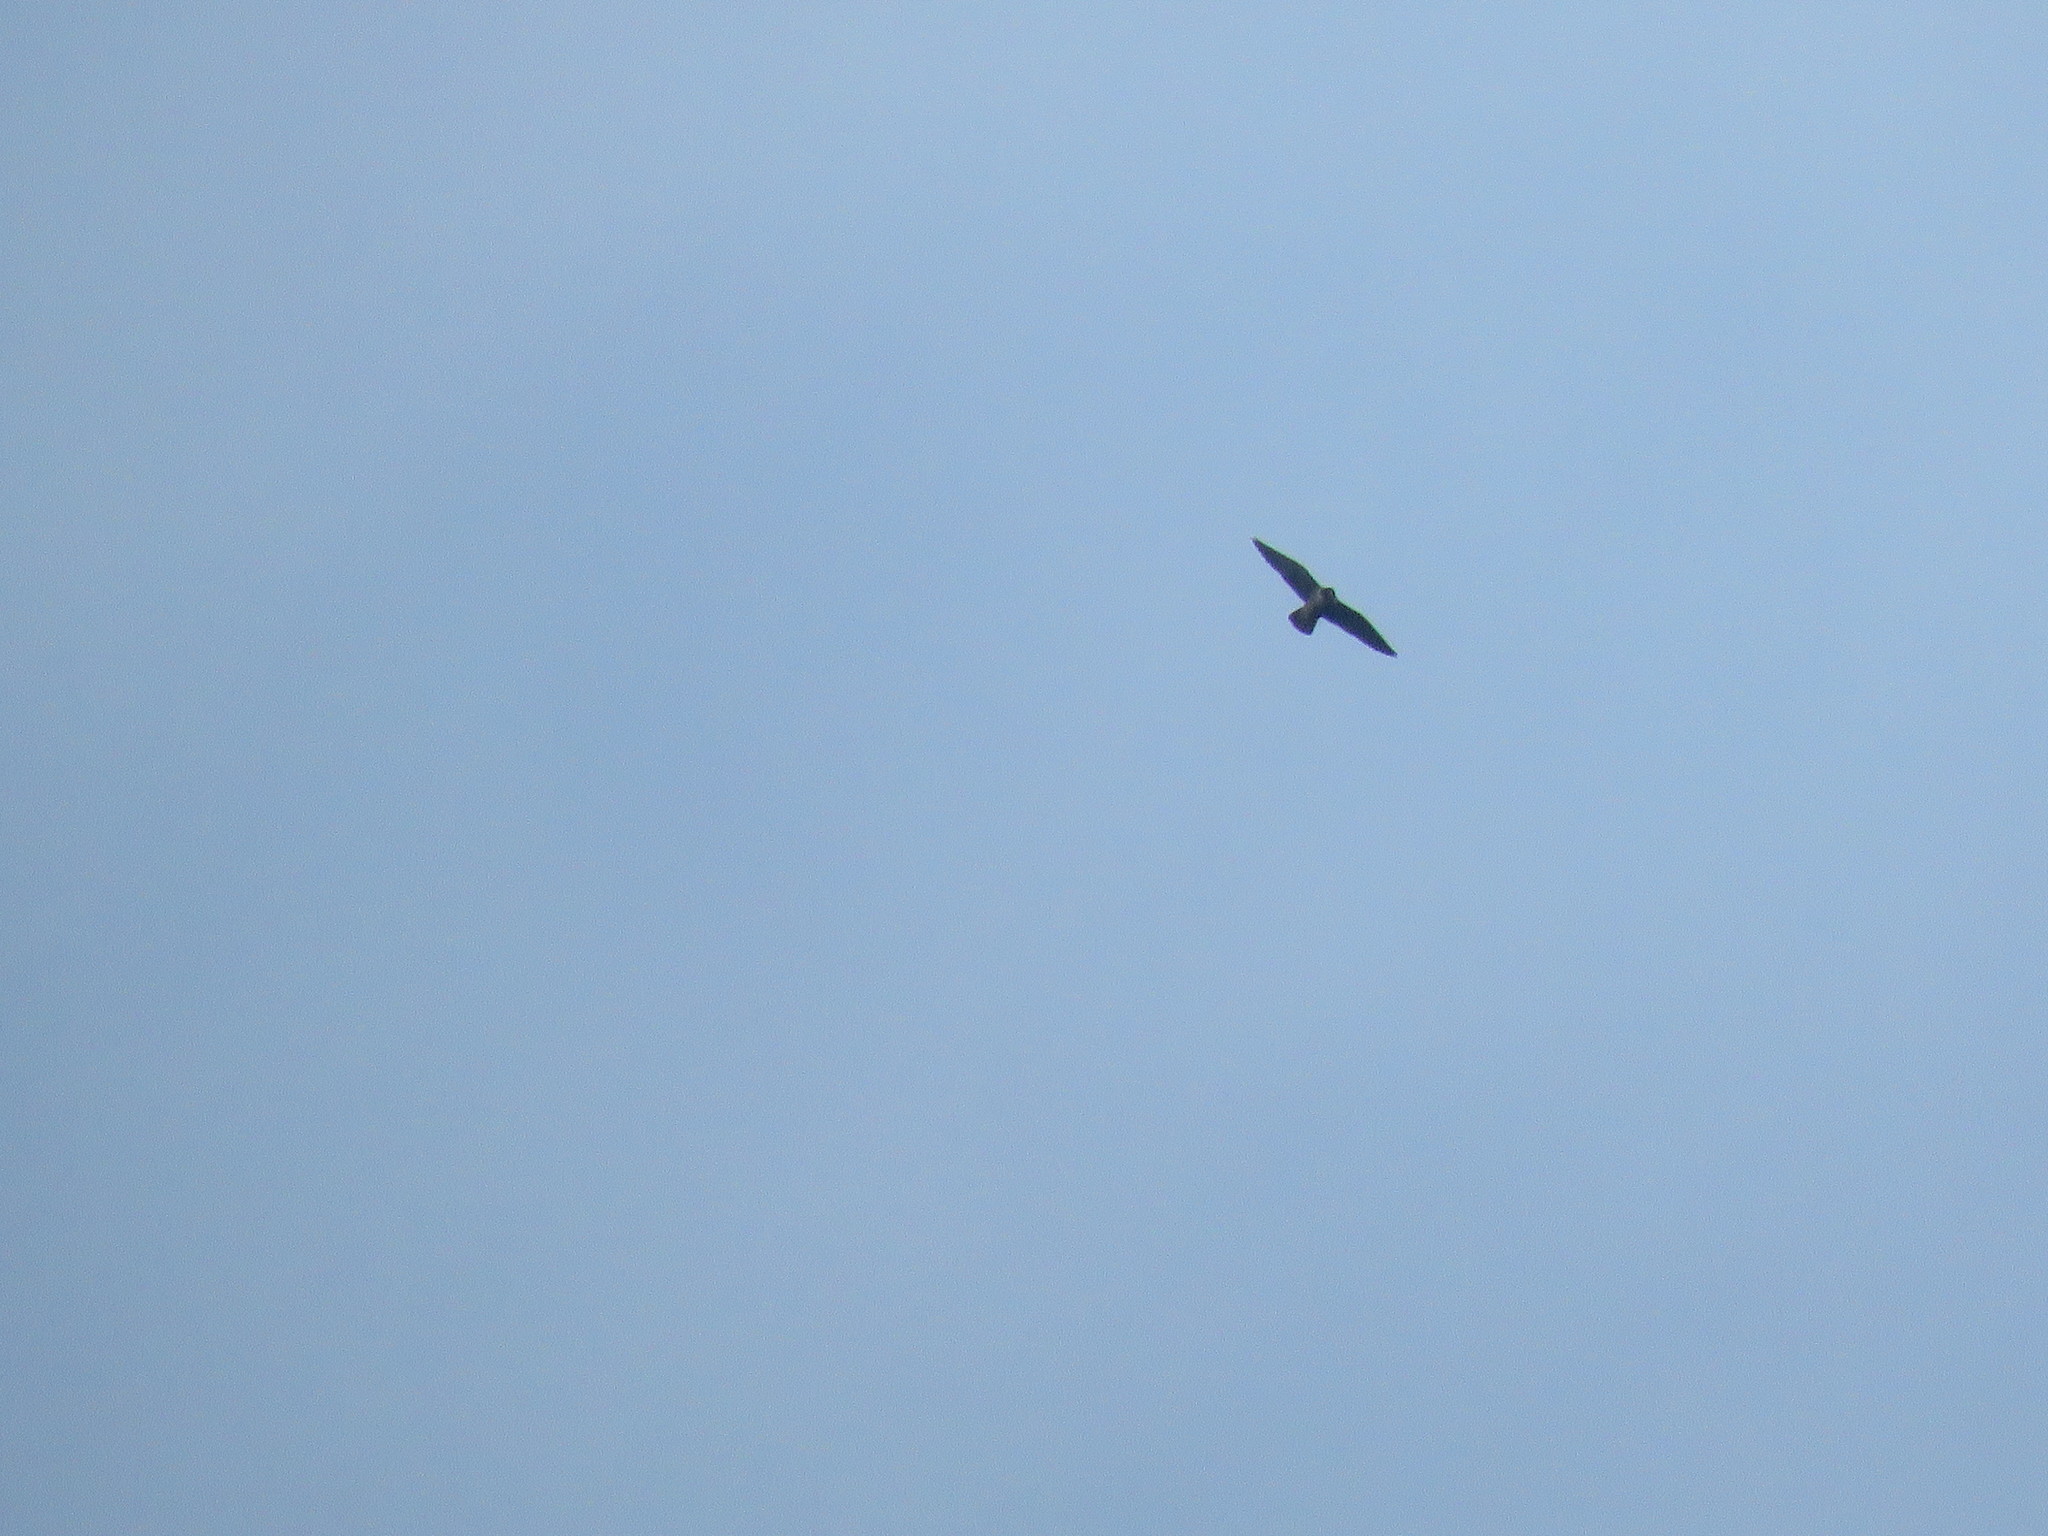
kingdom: Animalia
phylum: Chordata
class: Aves
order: Falconiformes
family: Falconidae
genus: Falco
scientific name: Falco peregrinus
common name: Peregrine falcon
